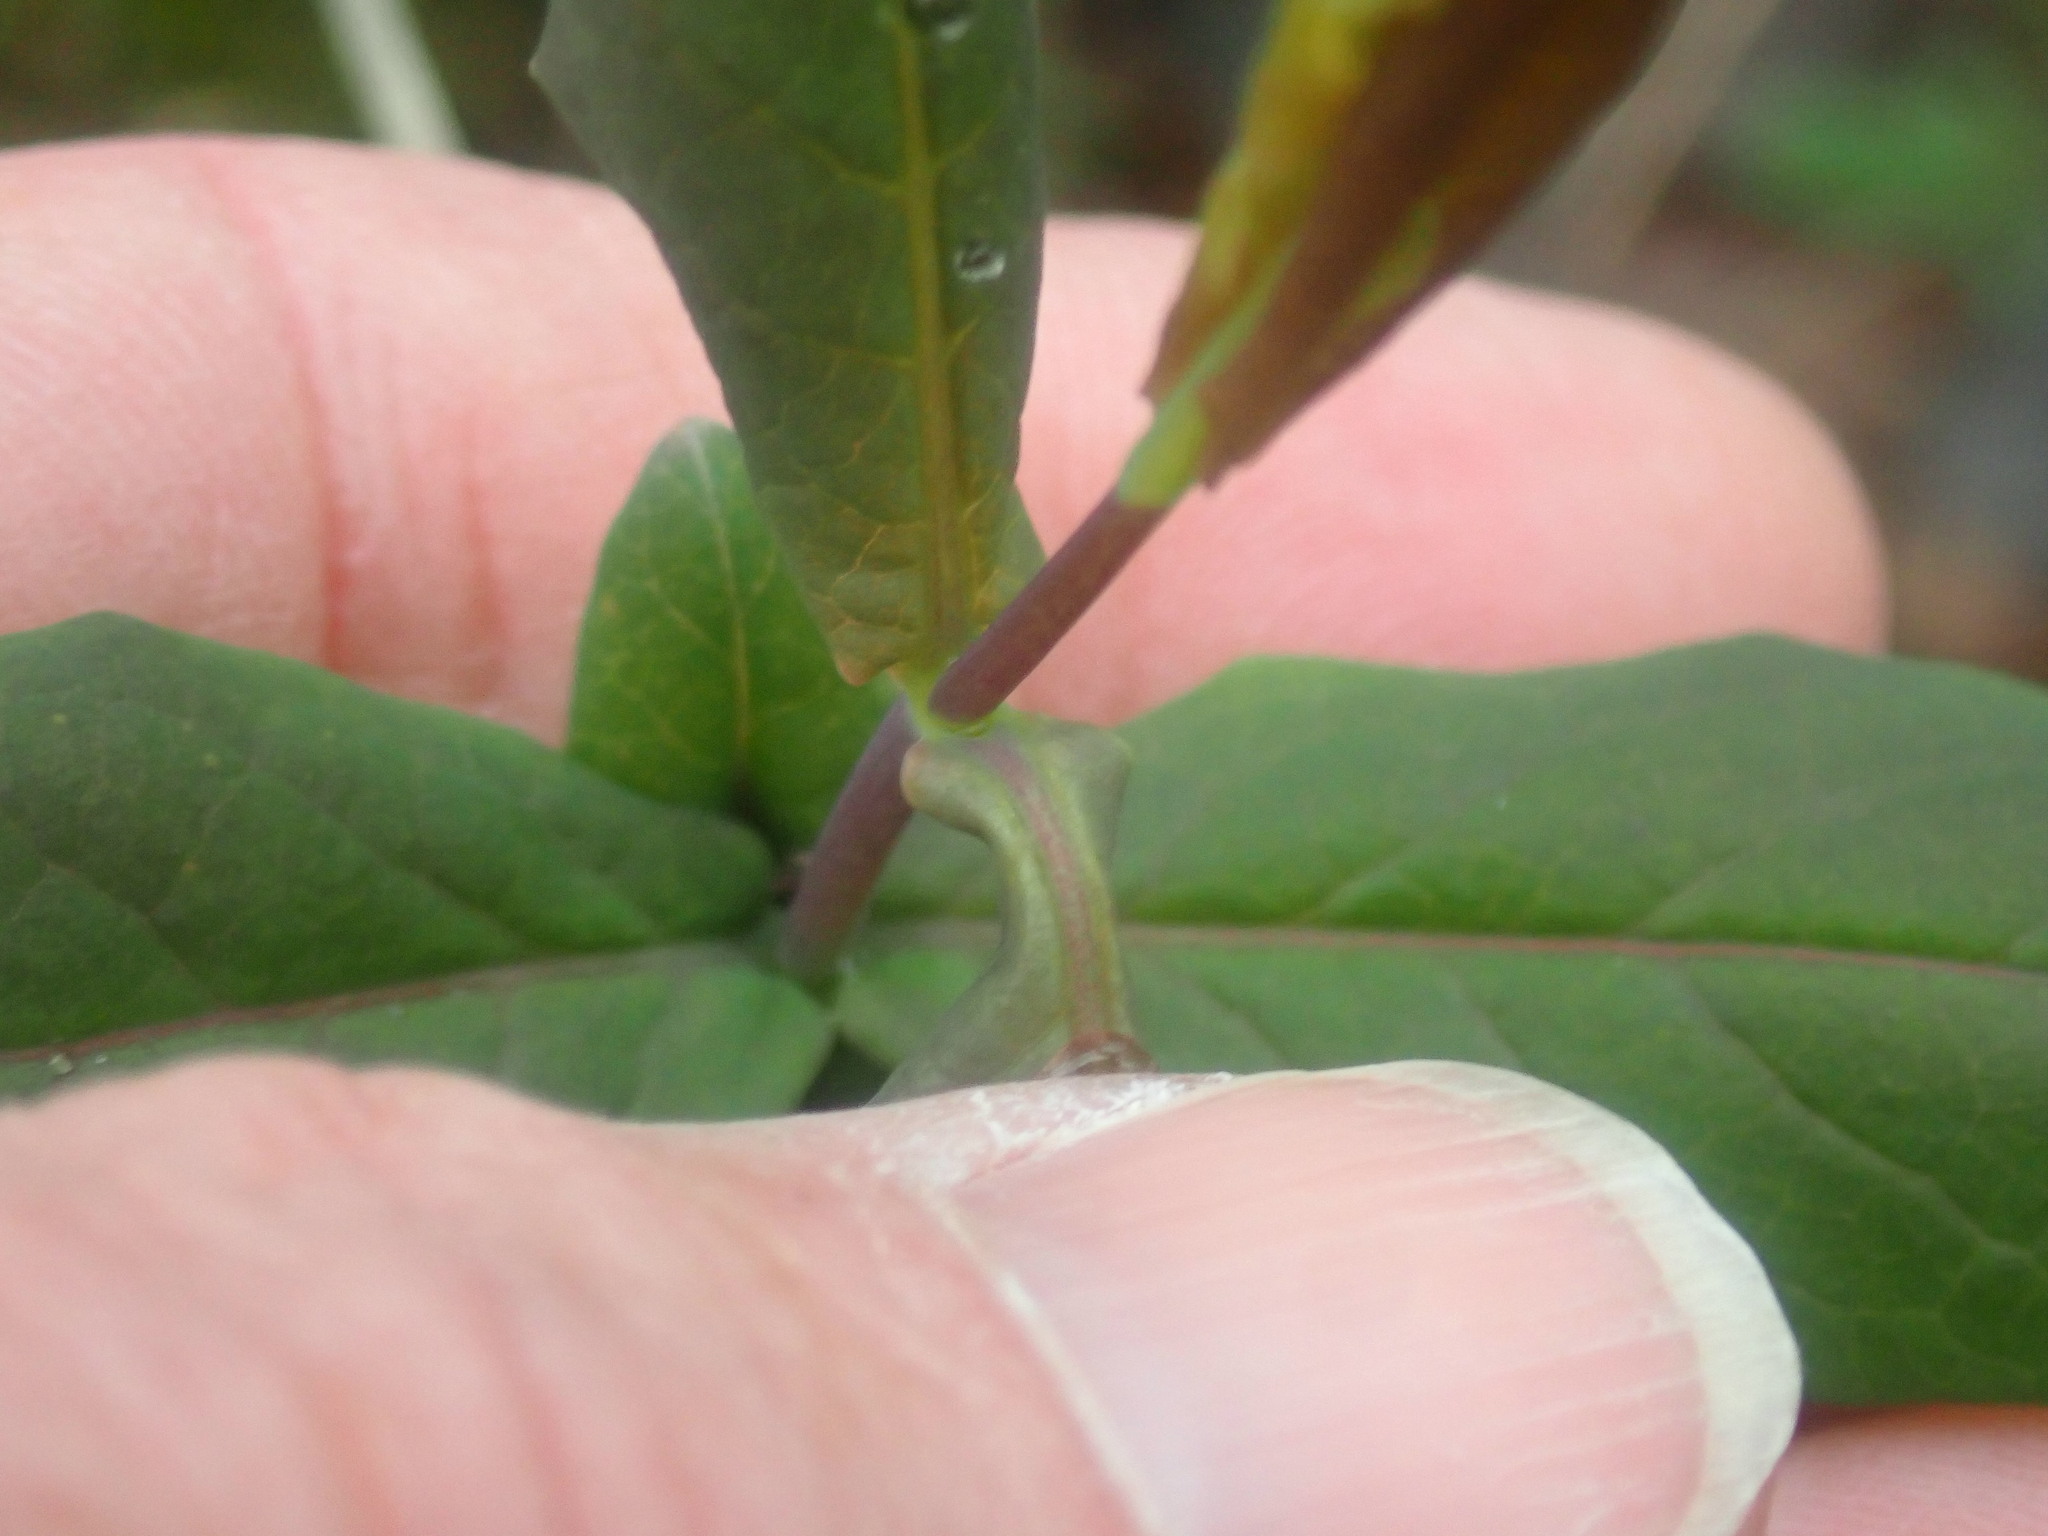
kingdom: Plantae
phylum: Tracheophyta
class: Magnoliopsida
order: Dipsacales
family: Caprifoliaceae
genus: Lonicera
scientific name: Lonicera dioica
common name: Limber honeysuckle
